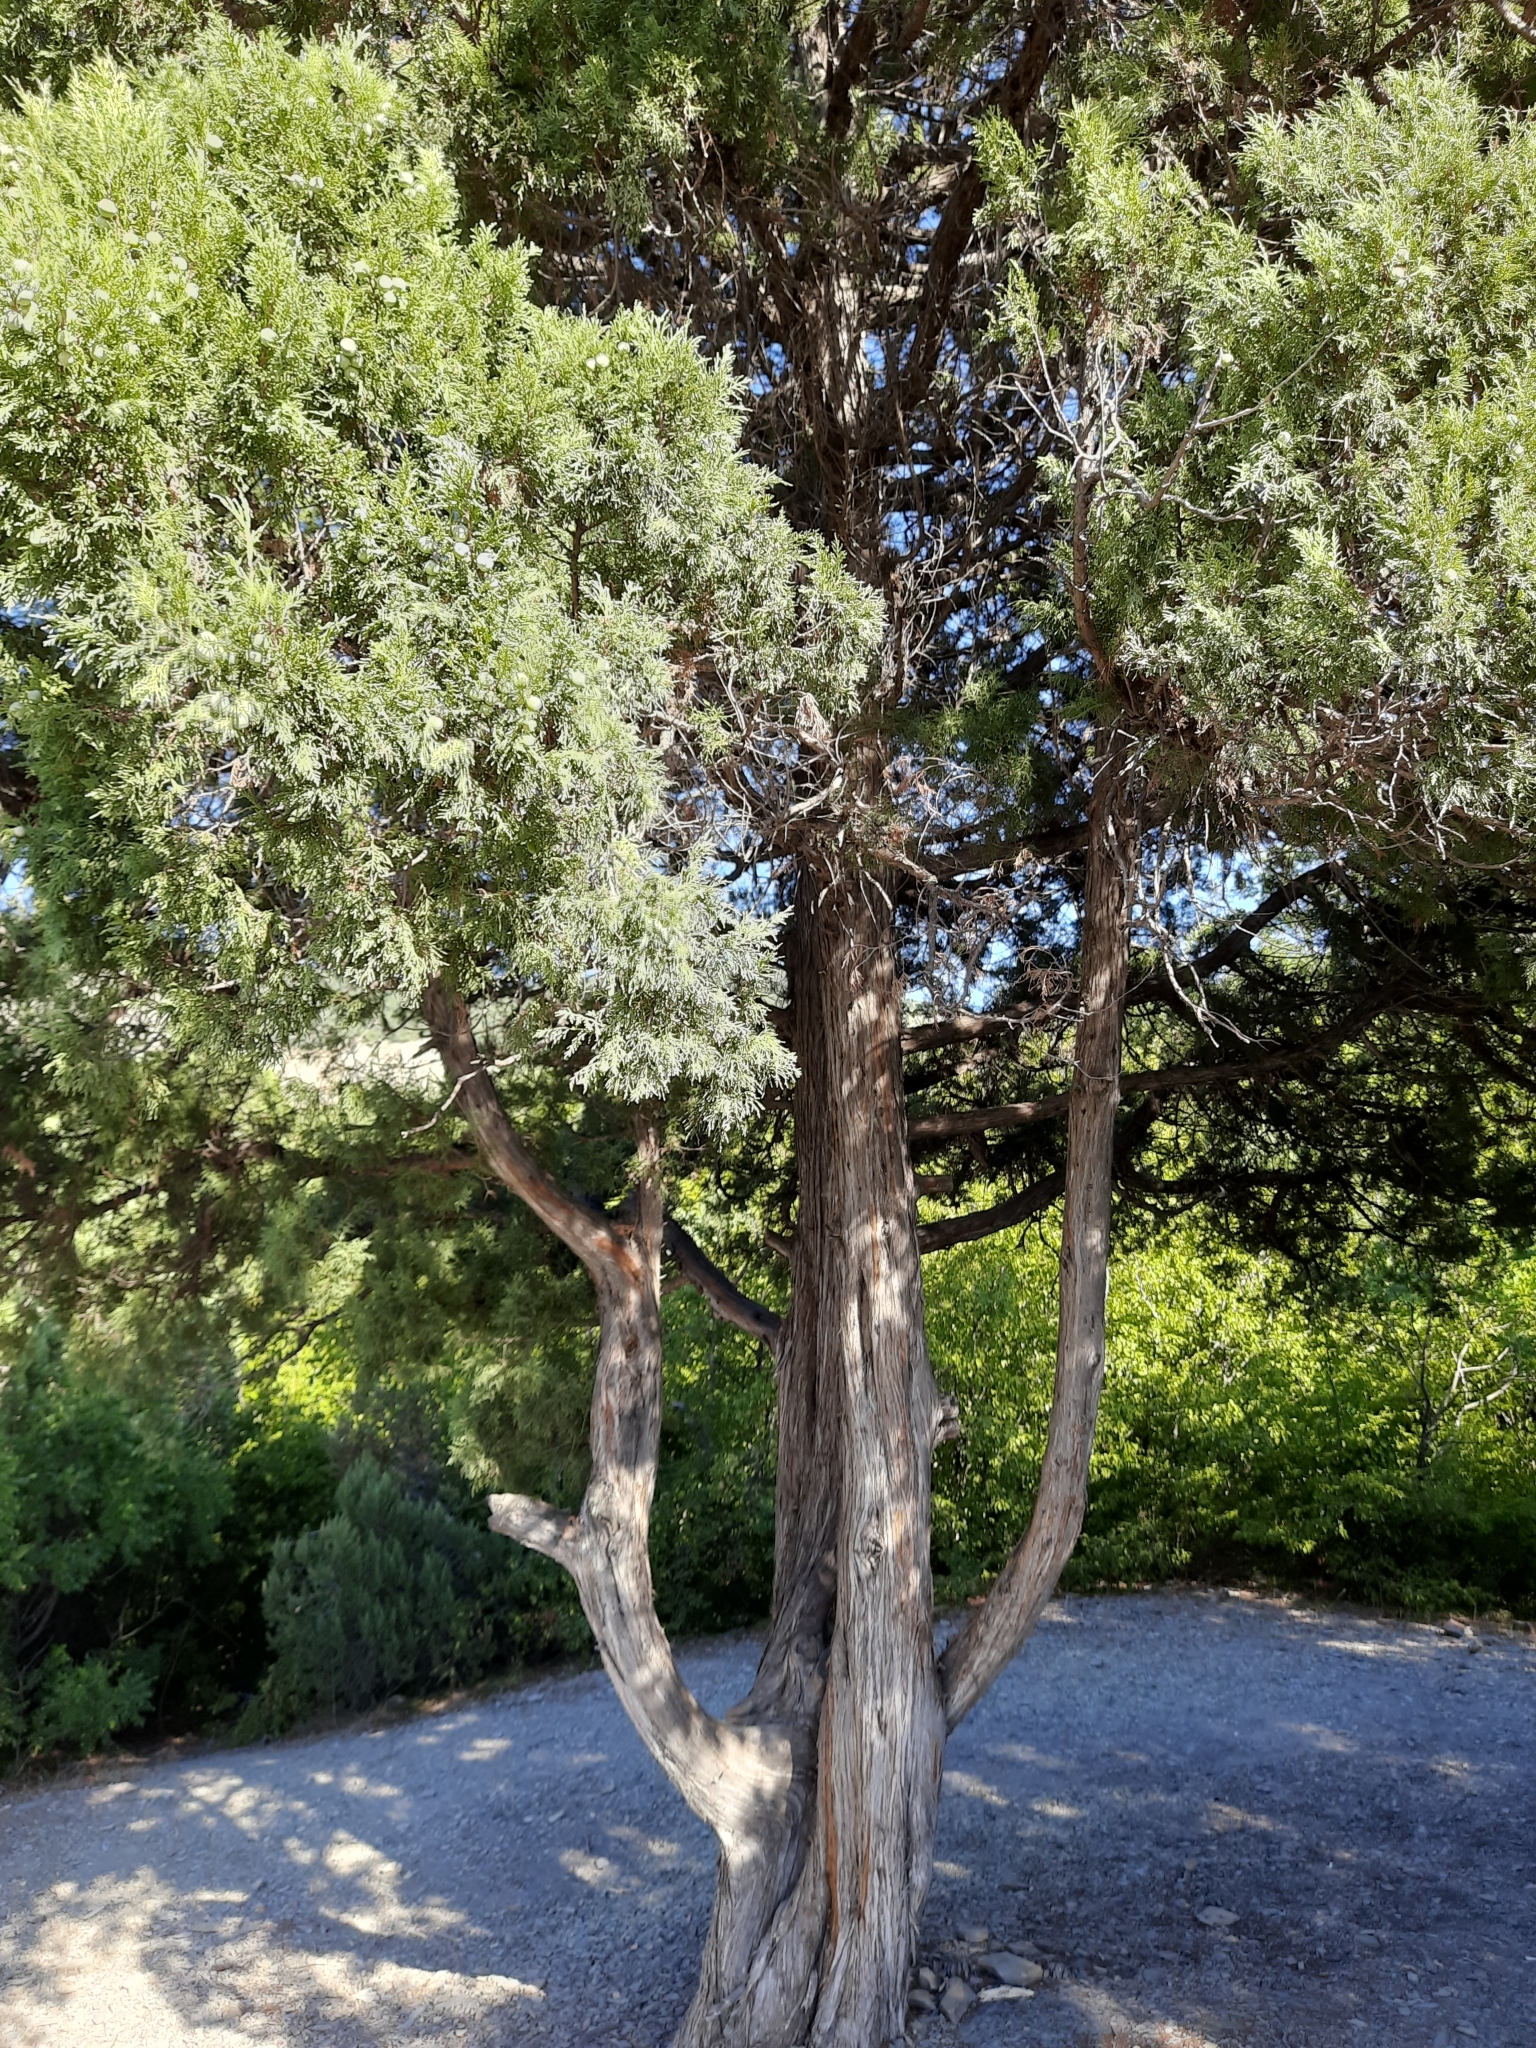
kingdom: Plantae
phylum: Tracheophyta
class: Pinopsida
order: Pinales
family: Cupressaceae
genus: Juniperus
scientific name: Juniperus excelsa
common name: Crimean juniper
